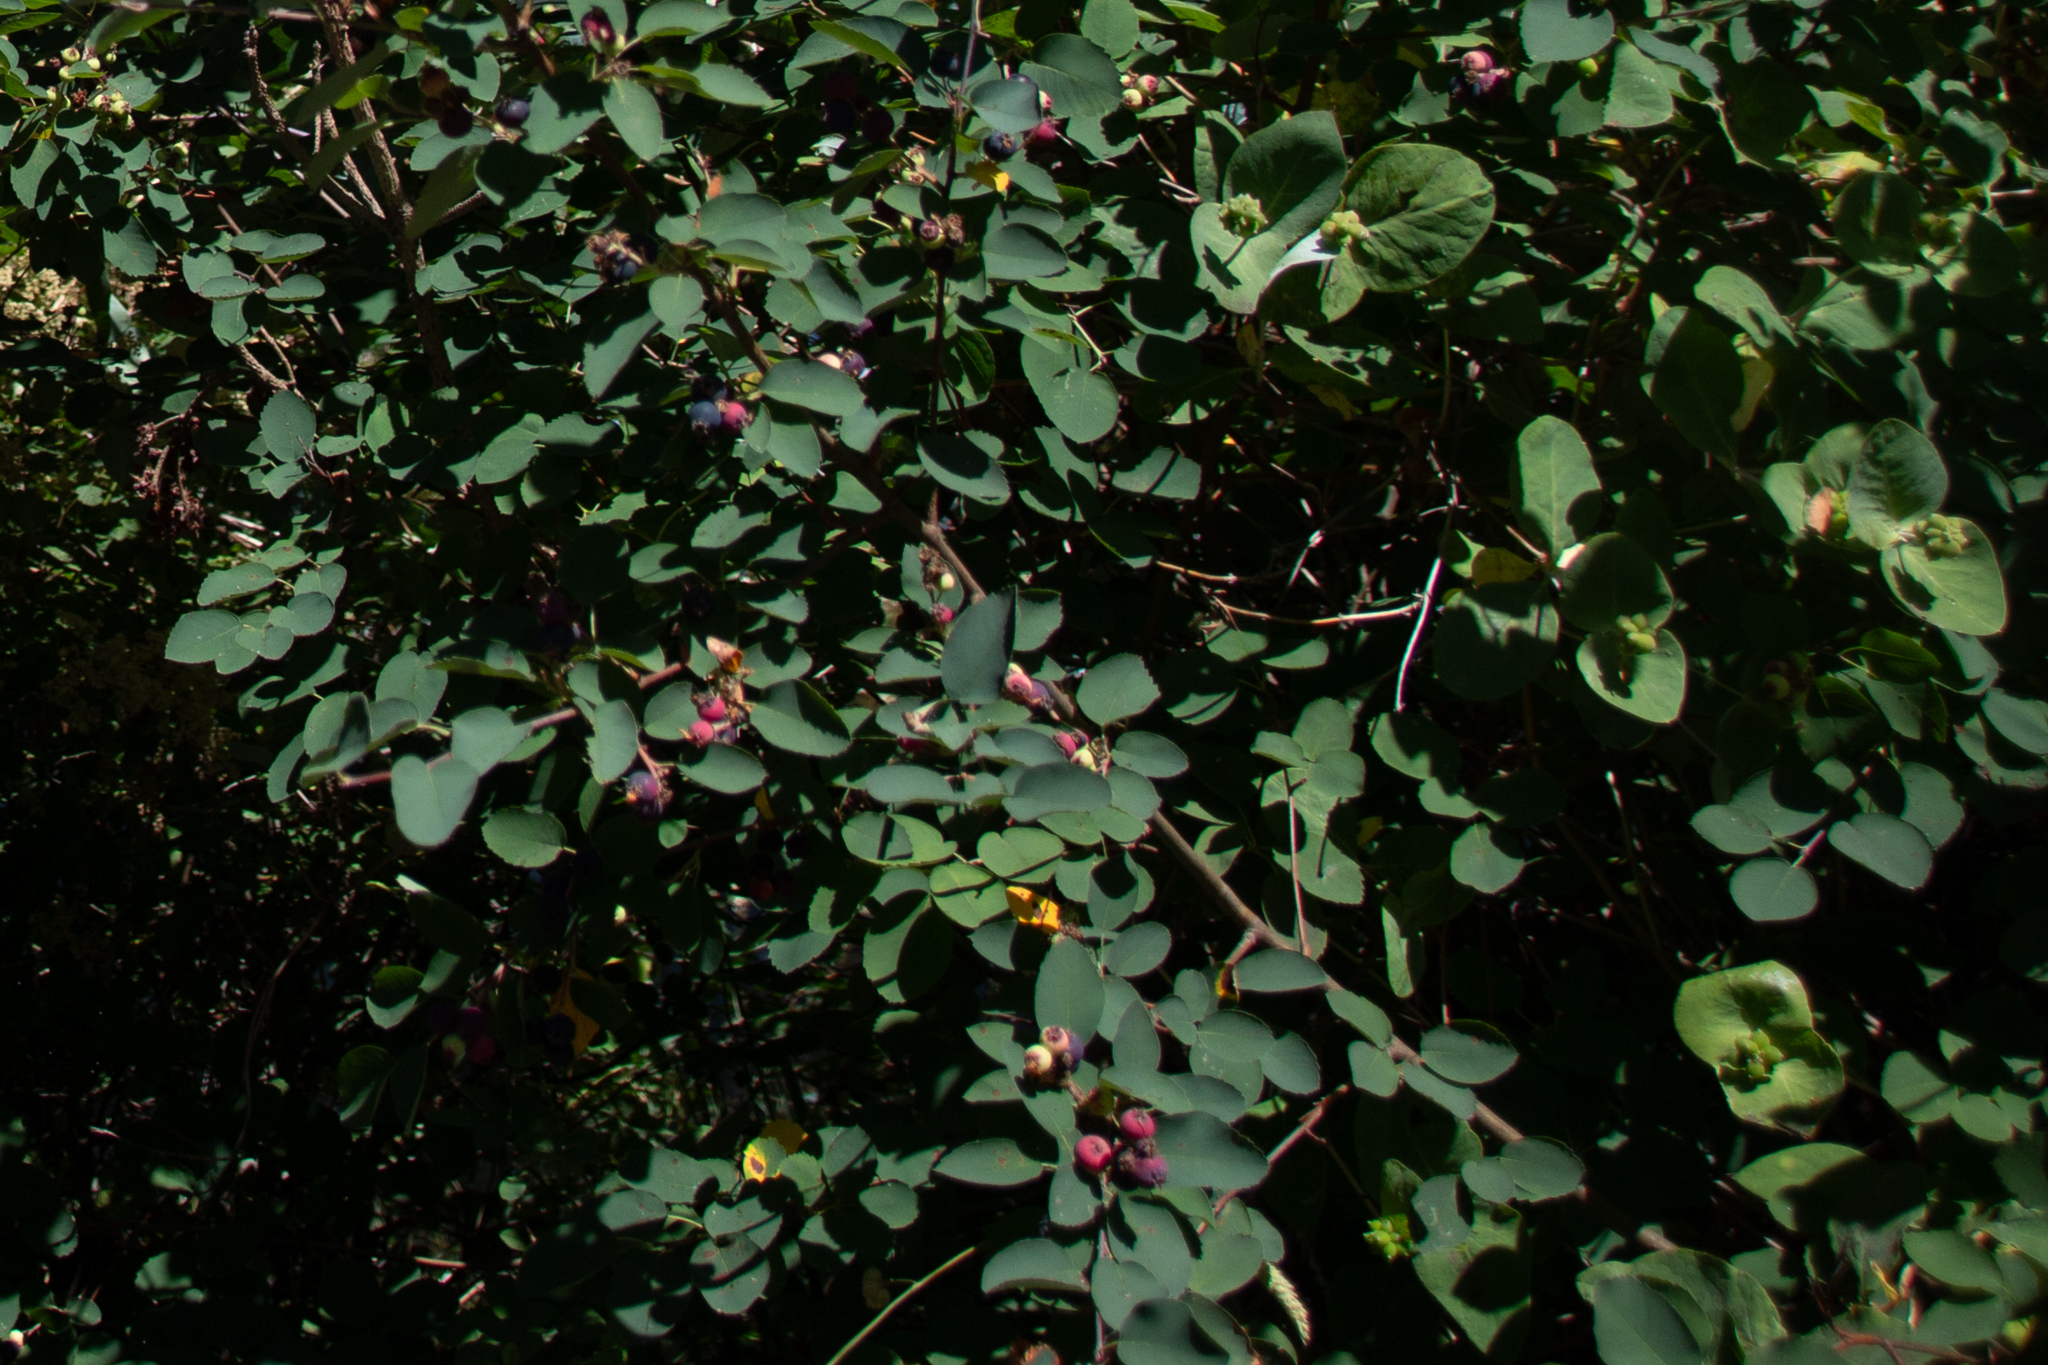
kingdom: Plantae
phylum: Tracheophyta
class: Magnoliopsida
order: Rosales
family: Rosaceae
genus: Amelanchier
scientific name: Amelanchier alnifolia
